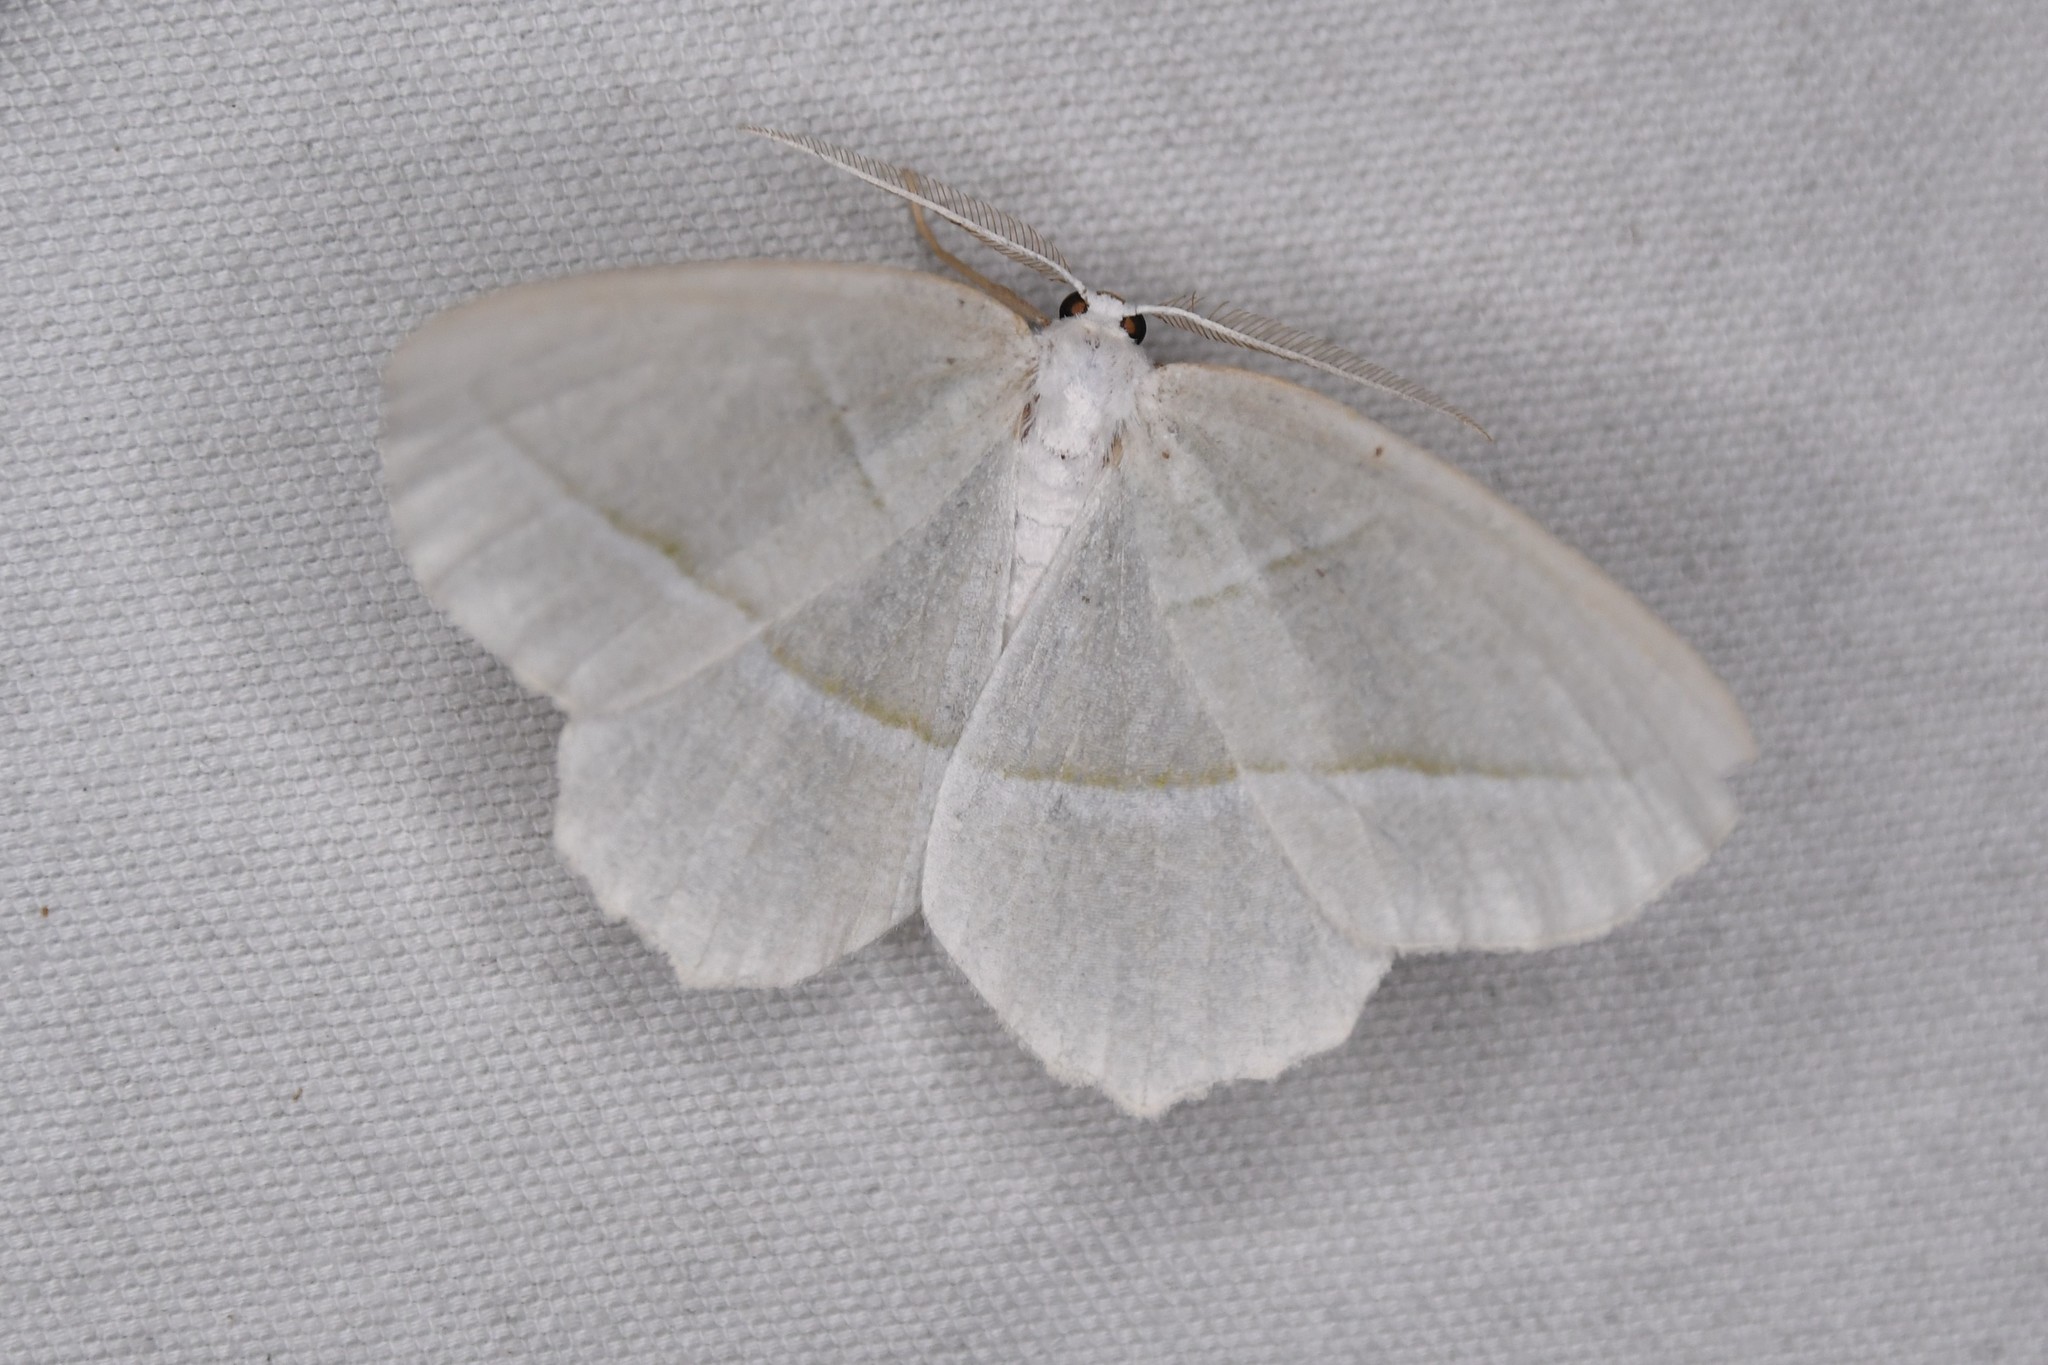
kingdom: Animalia
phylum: Arthropoda
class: Insecta
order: Lepidoptera
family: Geometridae
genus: Campaea
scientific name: Campaea perlata
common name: Fringed looper
